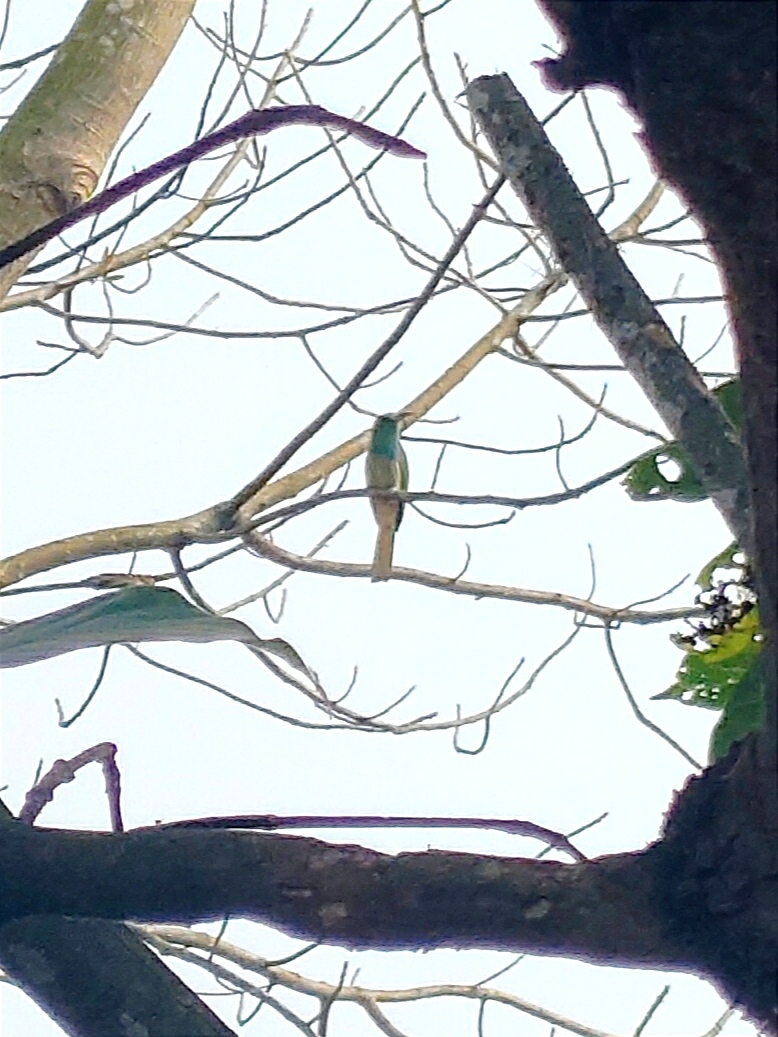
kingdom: Animalia
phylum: Chordata
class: Aves
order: Coraciiformes
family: Meropidae
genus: Nyctyornis
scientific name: Nyctyornis athertoni
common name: Blue-bearded bee-eater
